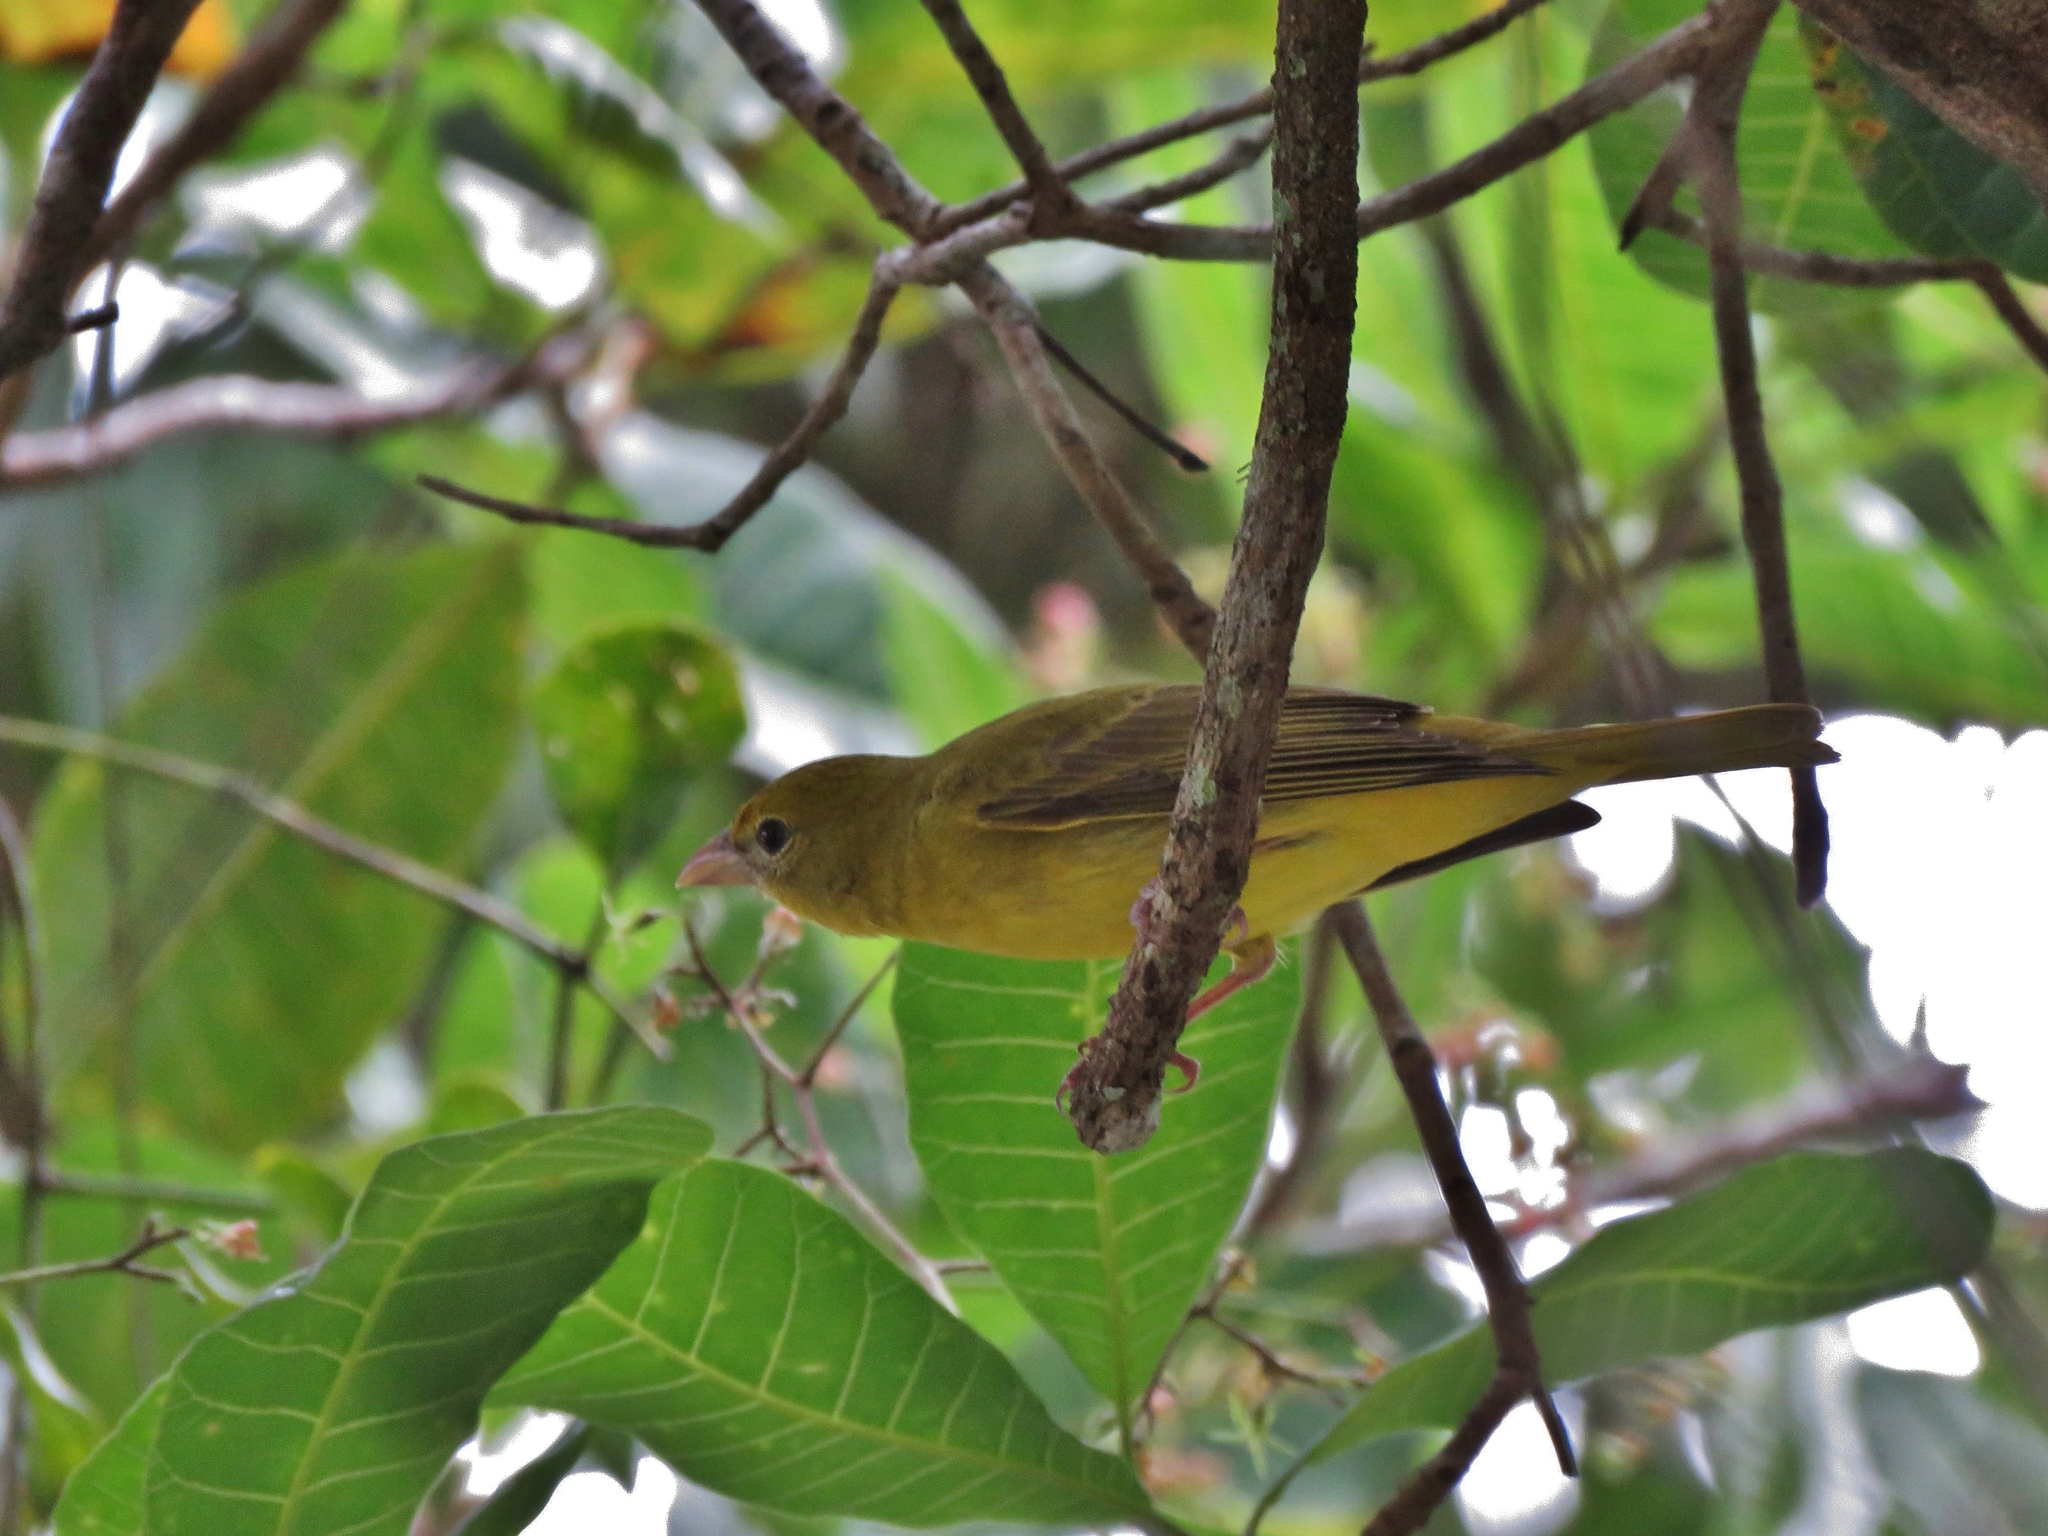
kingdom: Animalia
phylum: Chordata
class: Aves
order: Passeriformes
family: Cardinalidae
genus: Piranga
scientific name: Piranga rubra
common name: Summer tanager
